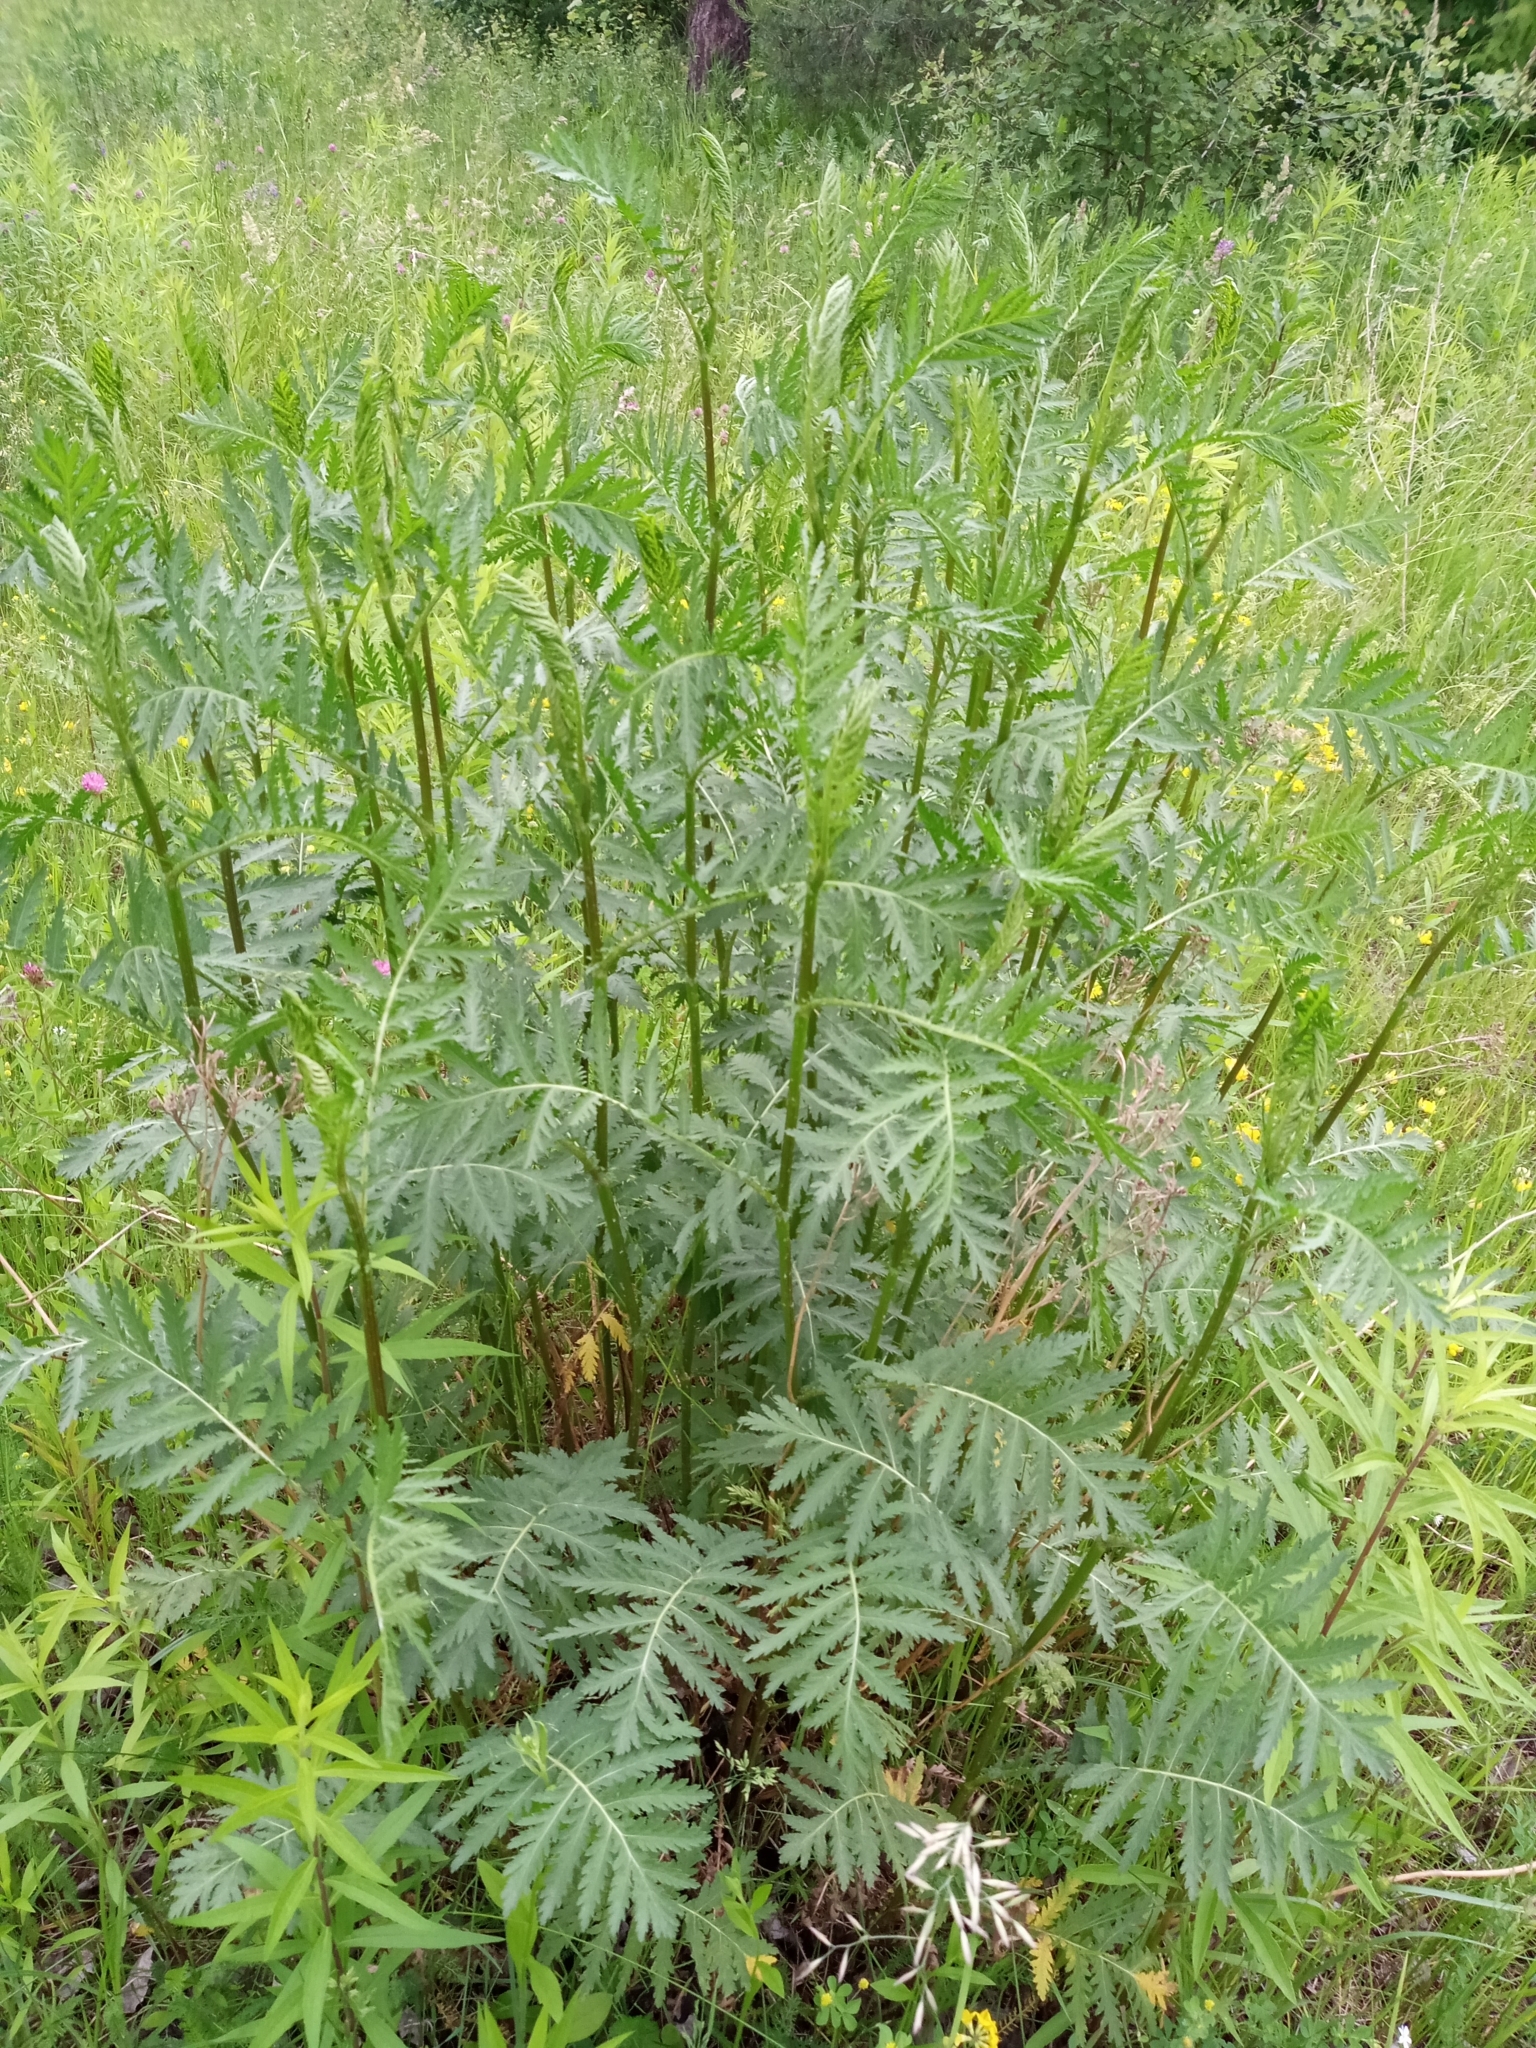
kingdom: Plantae
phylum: Tracheophyta
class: Magnoliopsida
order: Asterales
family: Asteraceae
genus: Tanacetum
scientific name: Tanacetum vulgare
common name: Common tansy
